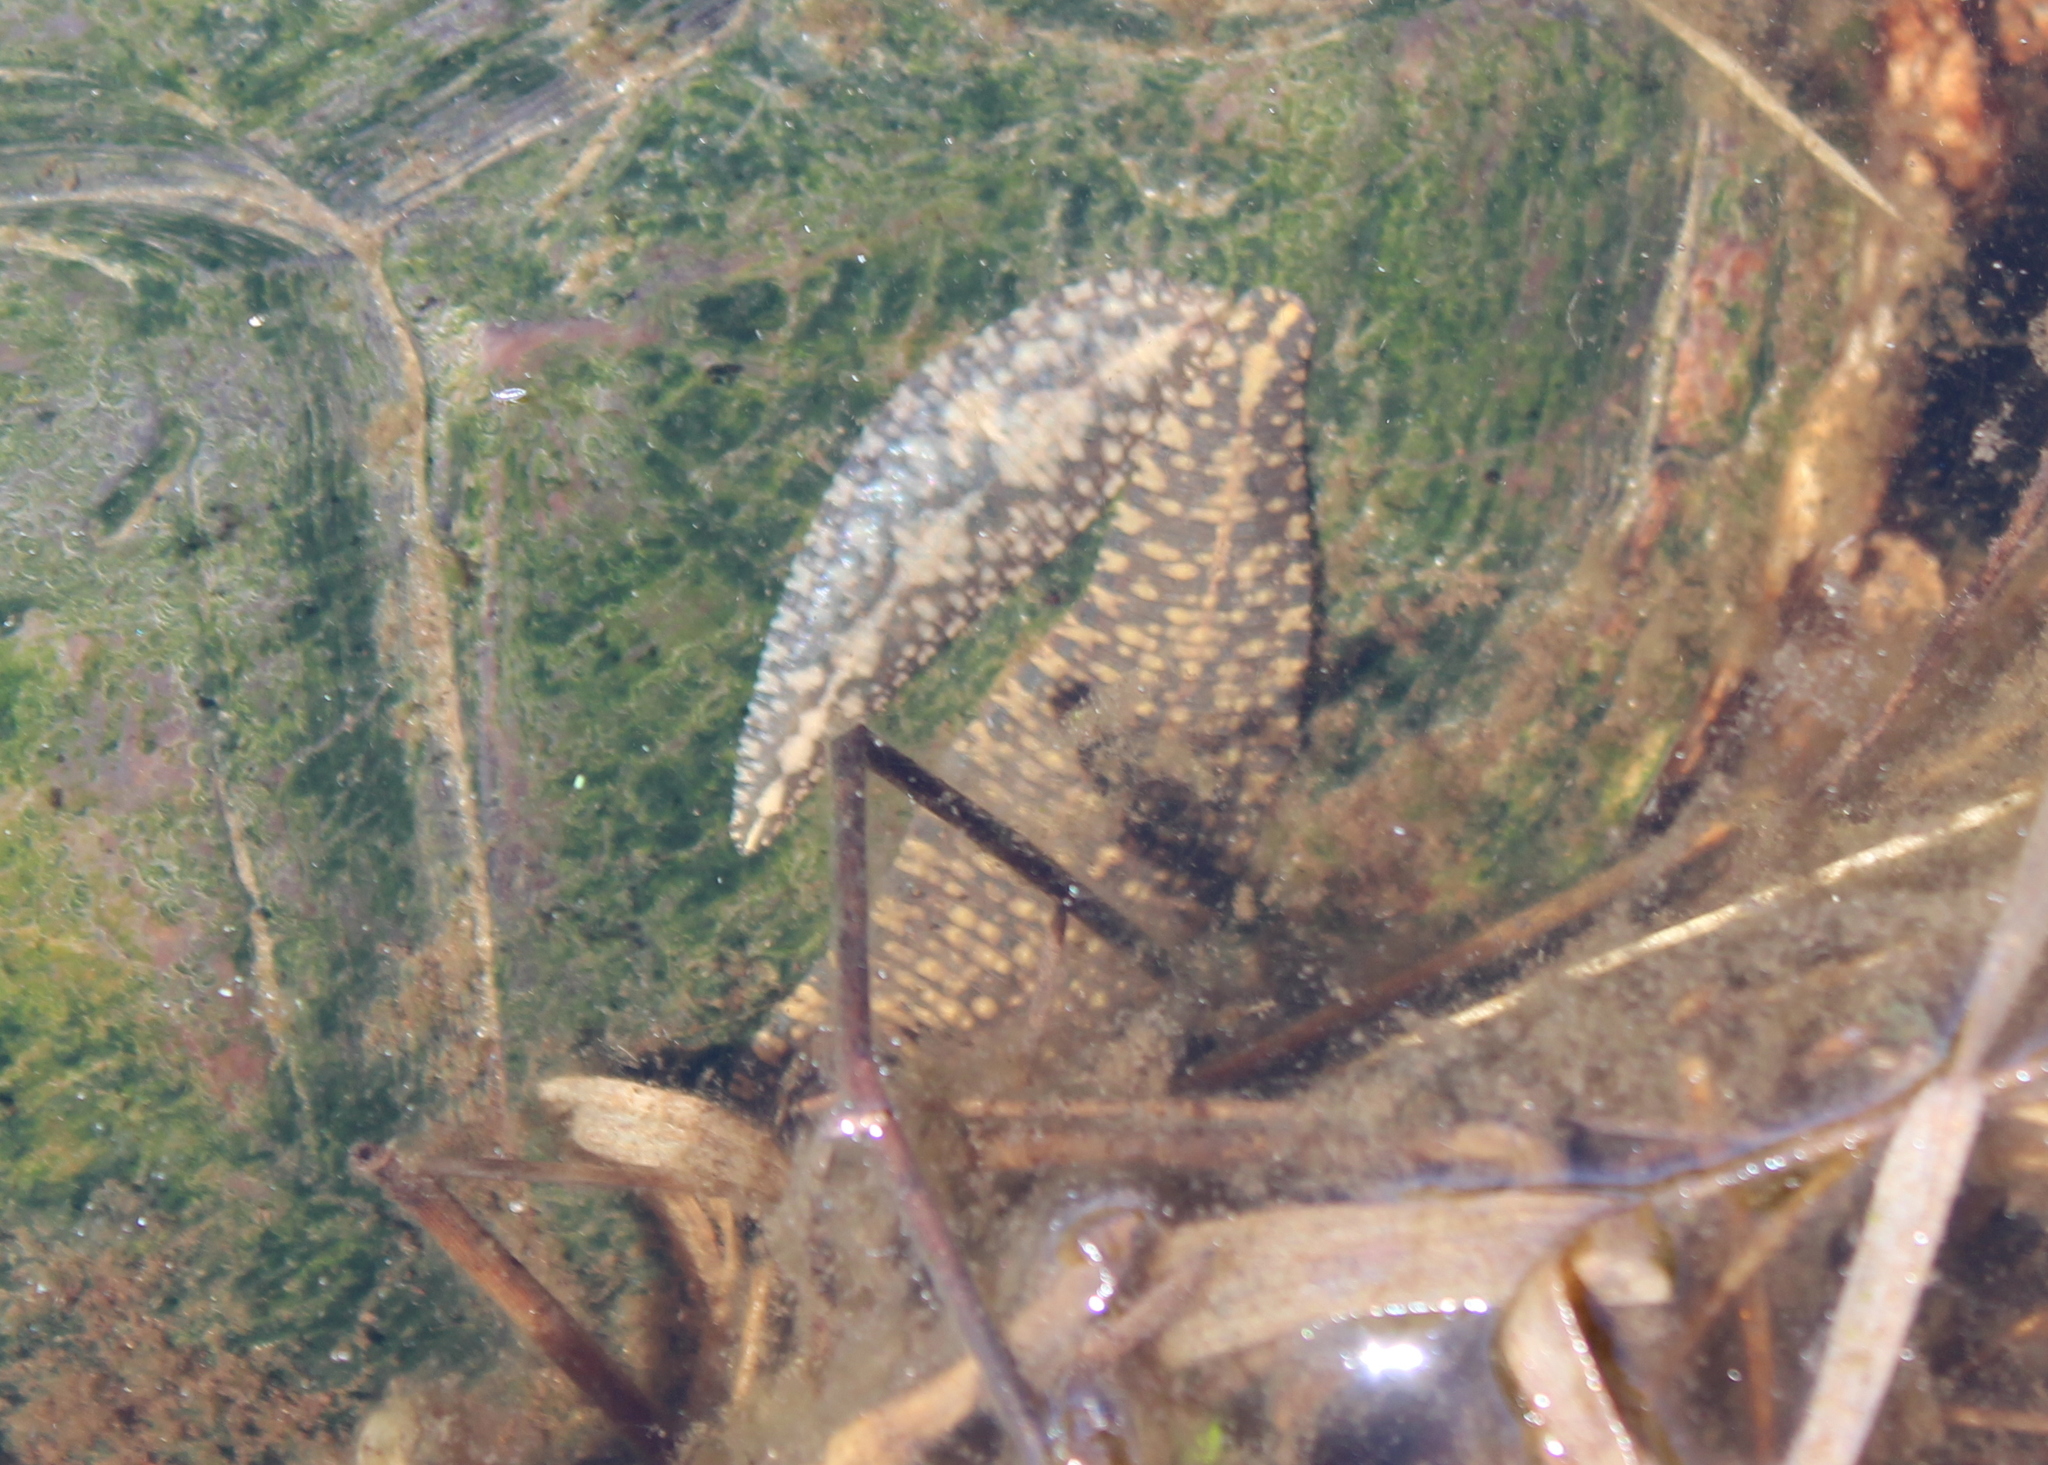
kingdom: Animalia
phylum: Annelida
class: Clitellata
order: Rhynchobdellida
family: Glossiphoniidae
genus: Placobdella
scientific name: Placobdella parasitica
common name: Smooth turtle leech
